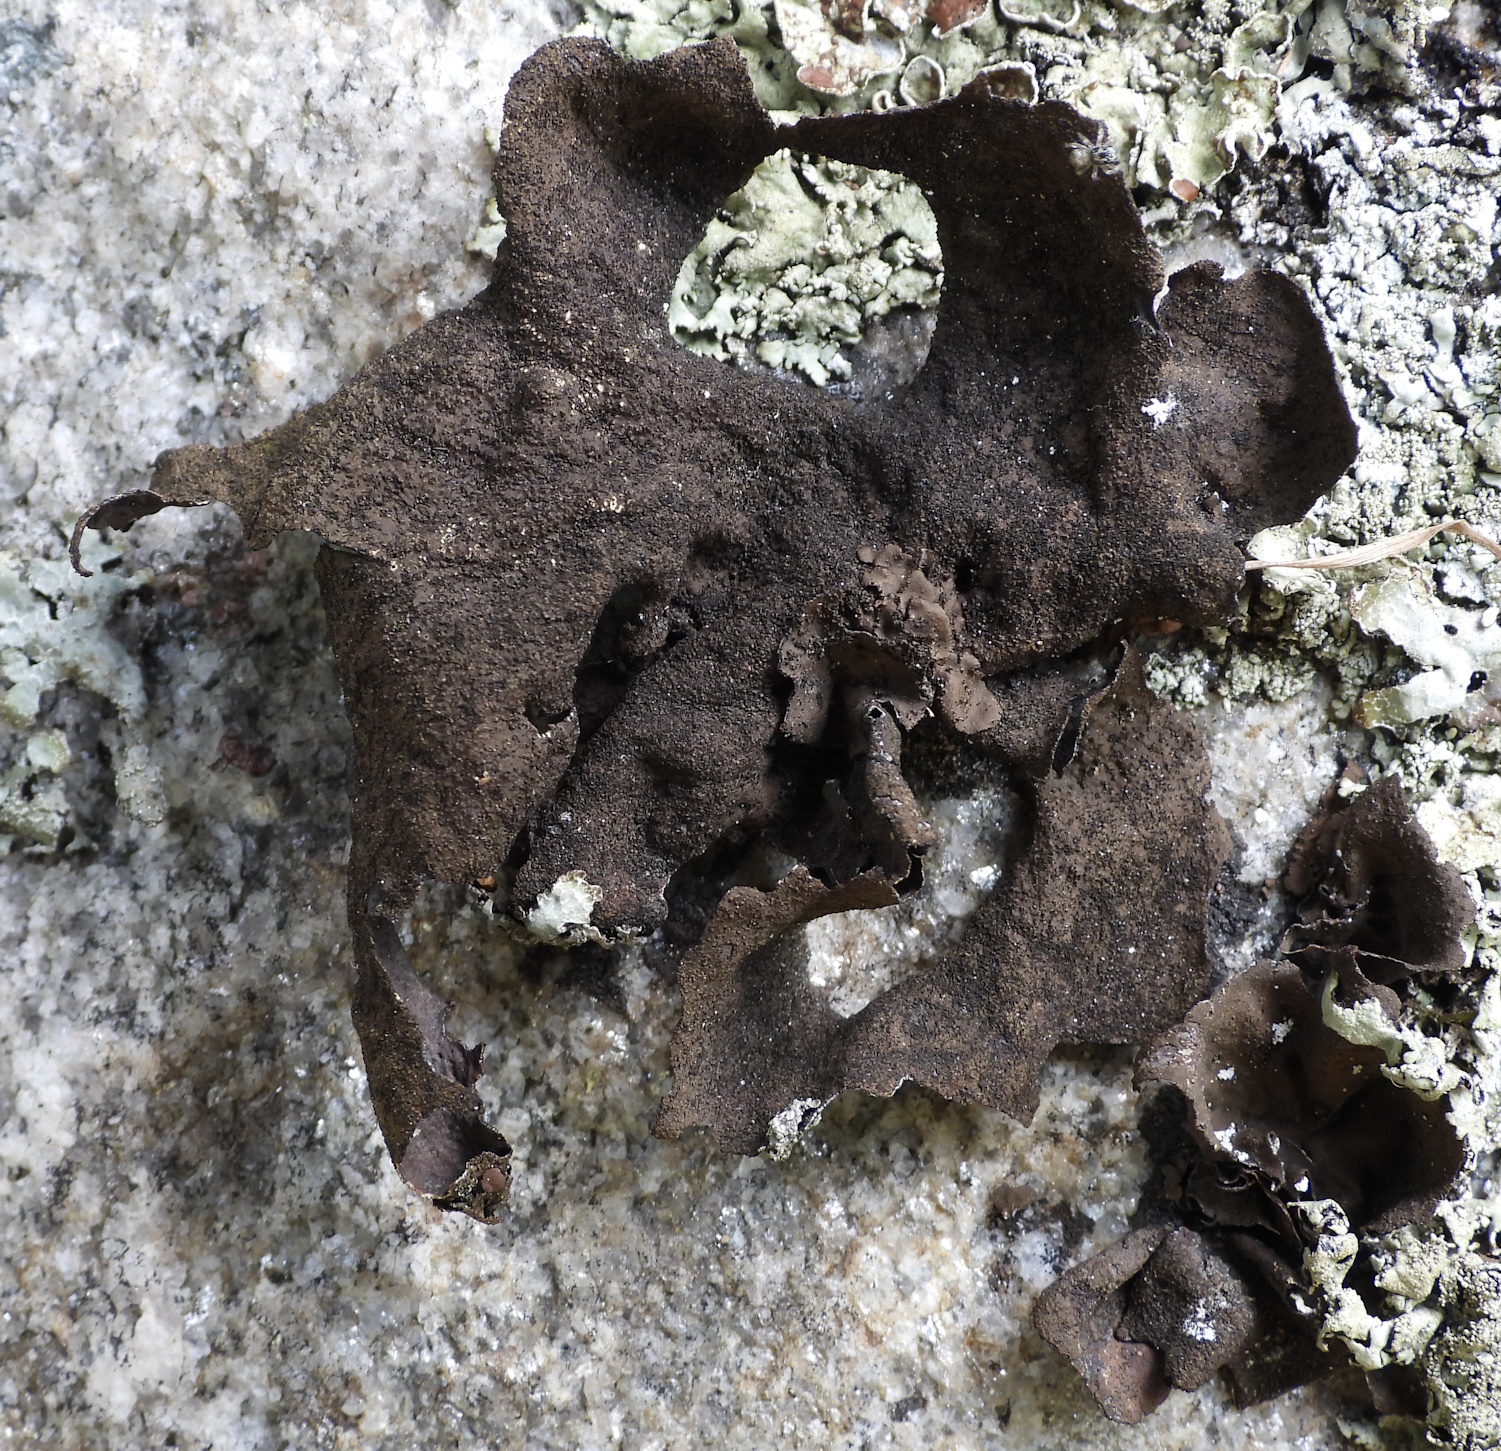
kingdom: Fungi
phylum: Ascomycota
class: Lecanoromycetes
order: Umbilicariales
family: Umbilicariaceae
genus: Umbilicaria
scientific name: Umbilicaria deusta
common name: Peppered rock tripe
